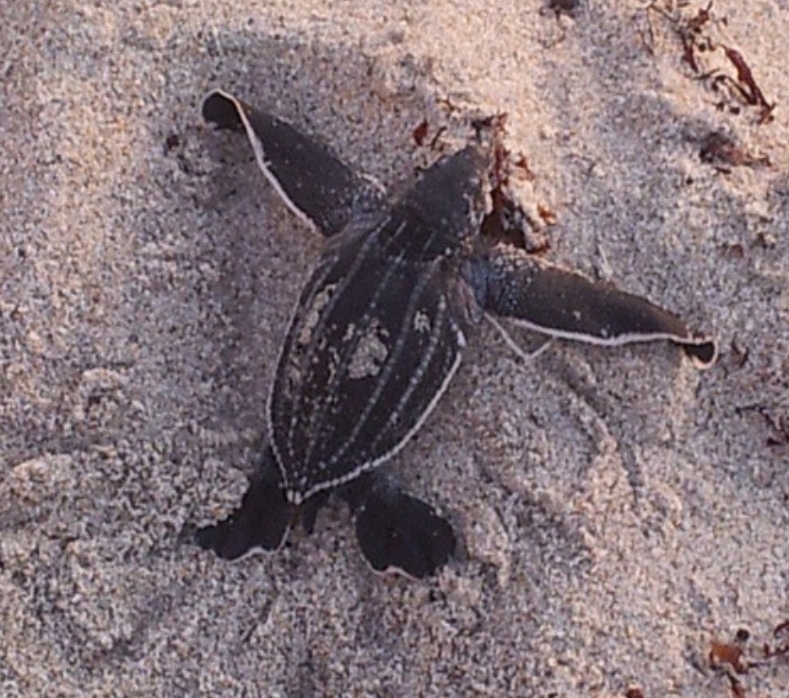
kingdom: Animalia
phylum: Chordata
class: Testudines
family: Dermochelyidae
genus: Dermochelys
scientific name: Dermochelys coriacea
